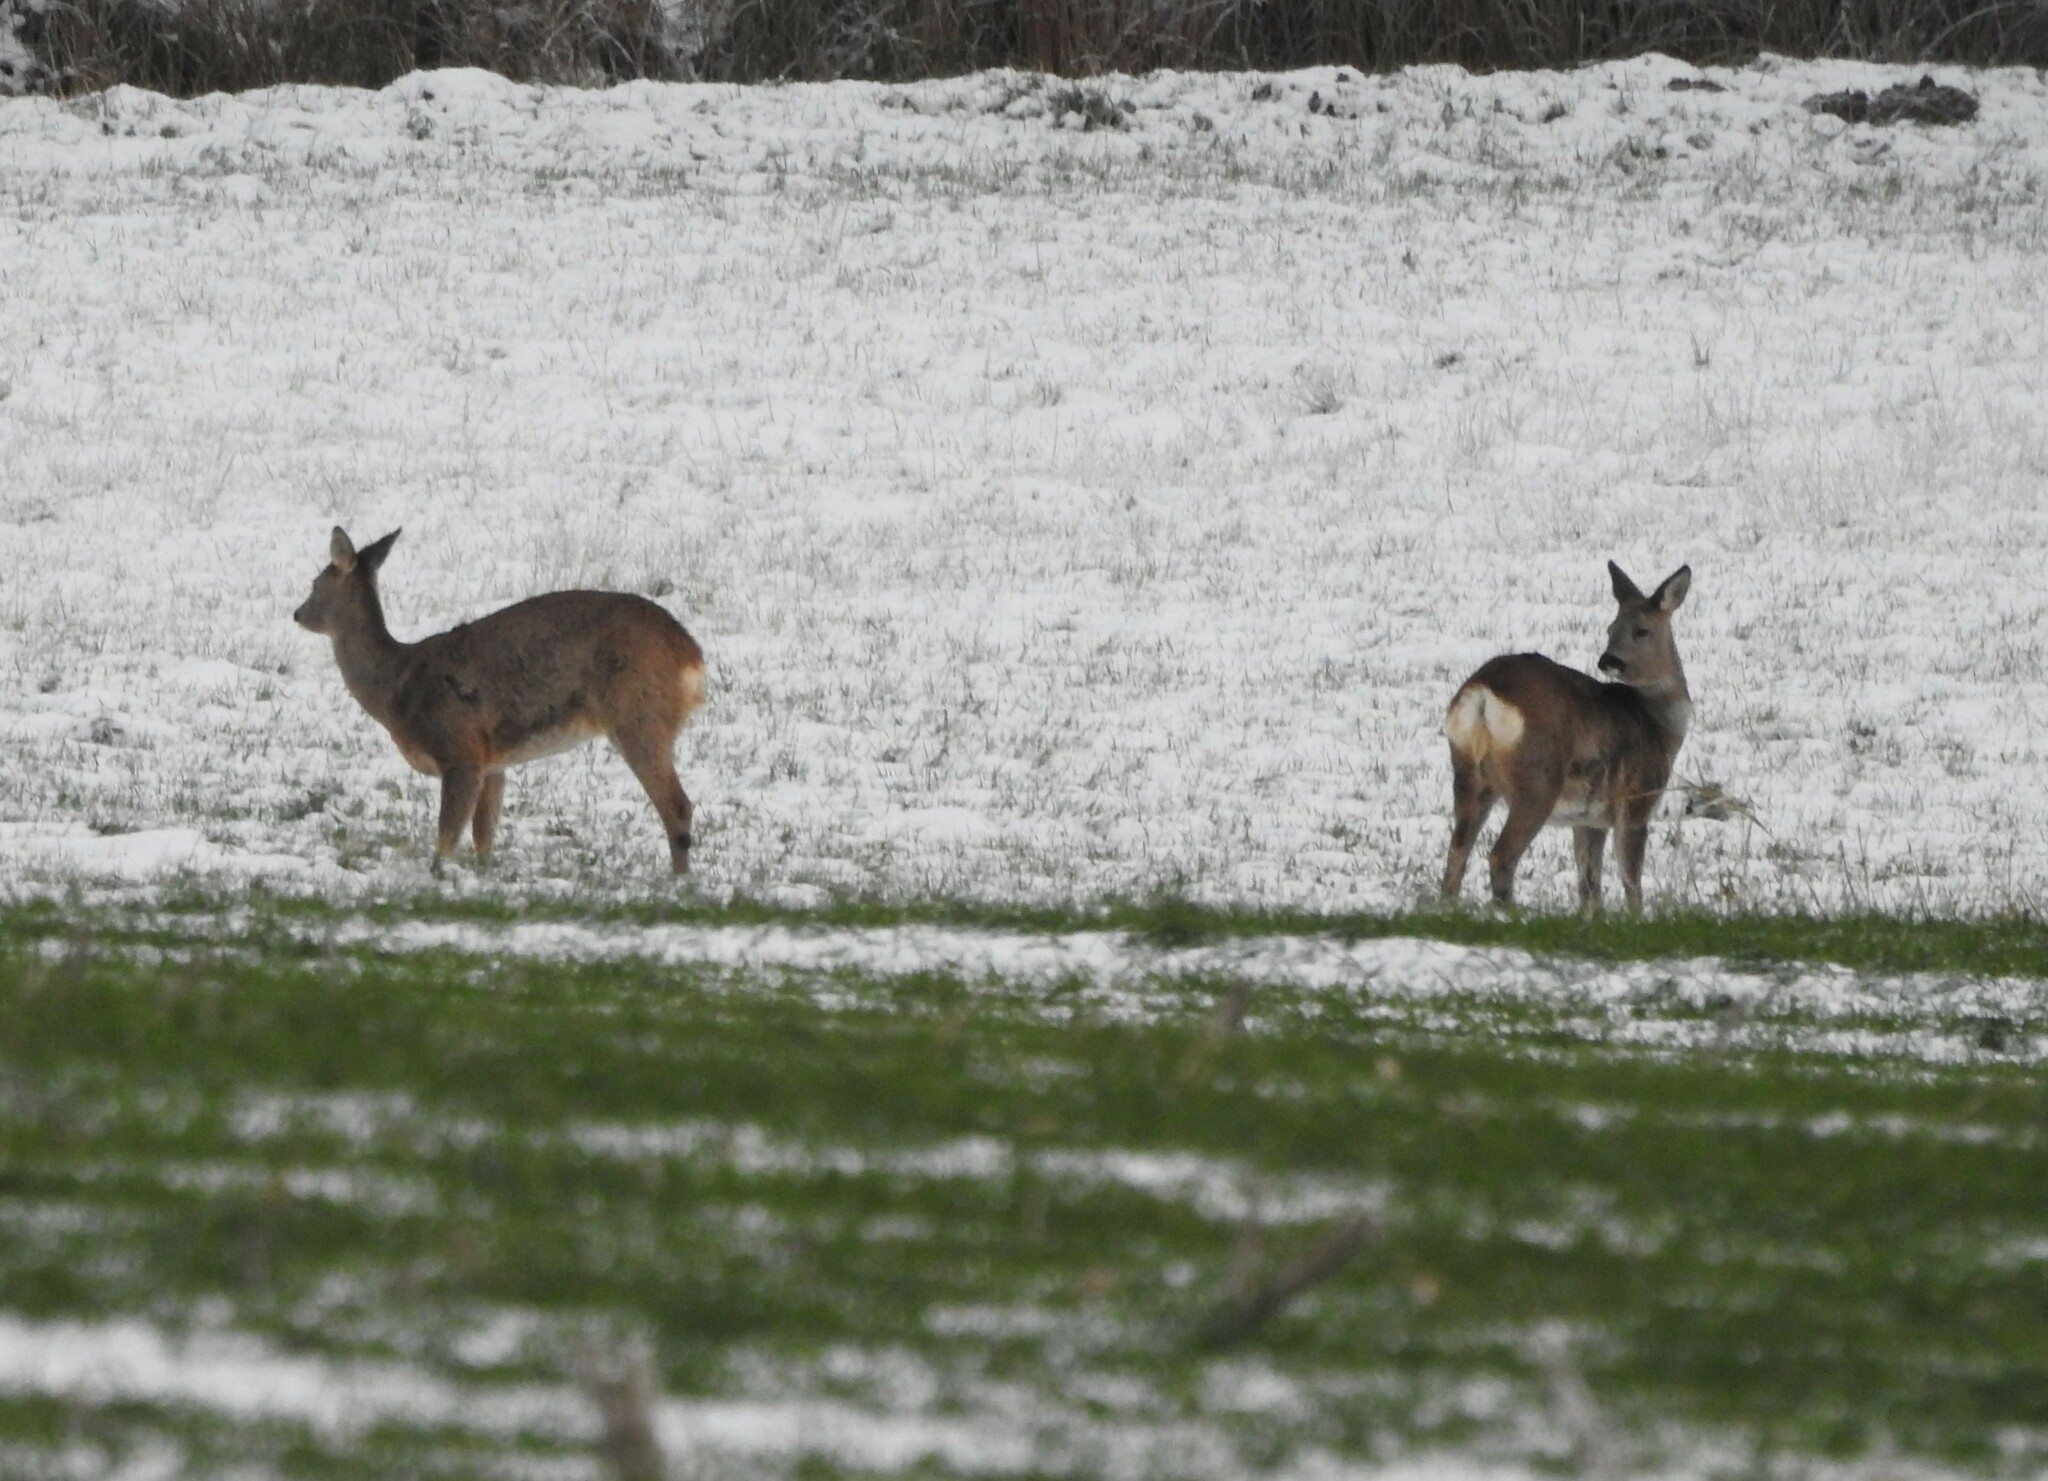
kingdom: Animalia
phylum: Chordata
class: Mammalia
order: Artiodactyla
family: Cervidae
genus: Capreolus
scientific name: Capreolus capreolus
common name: Western roe deer
